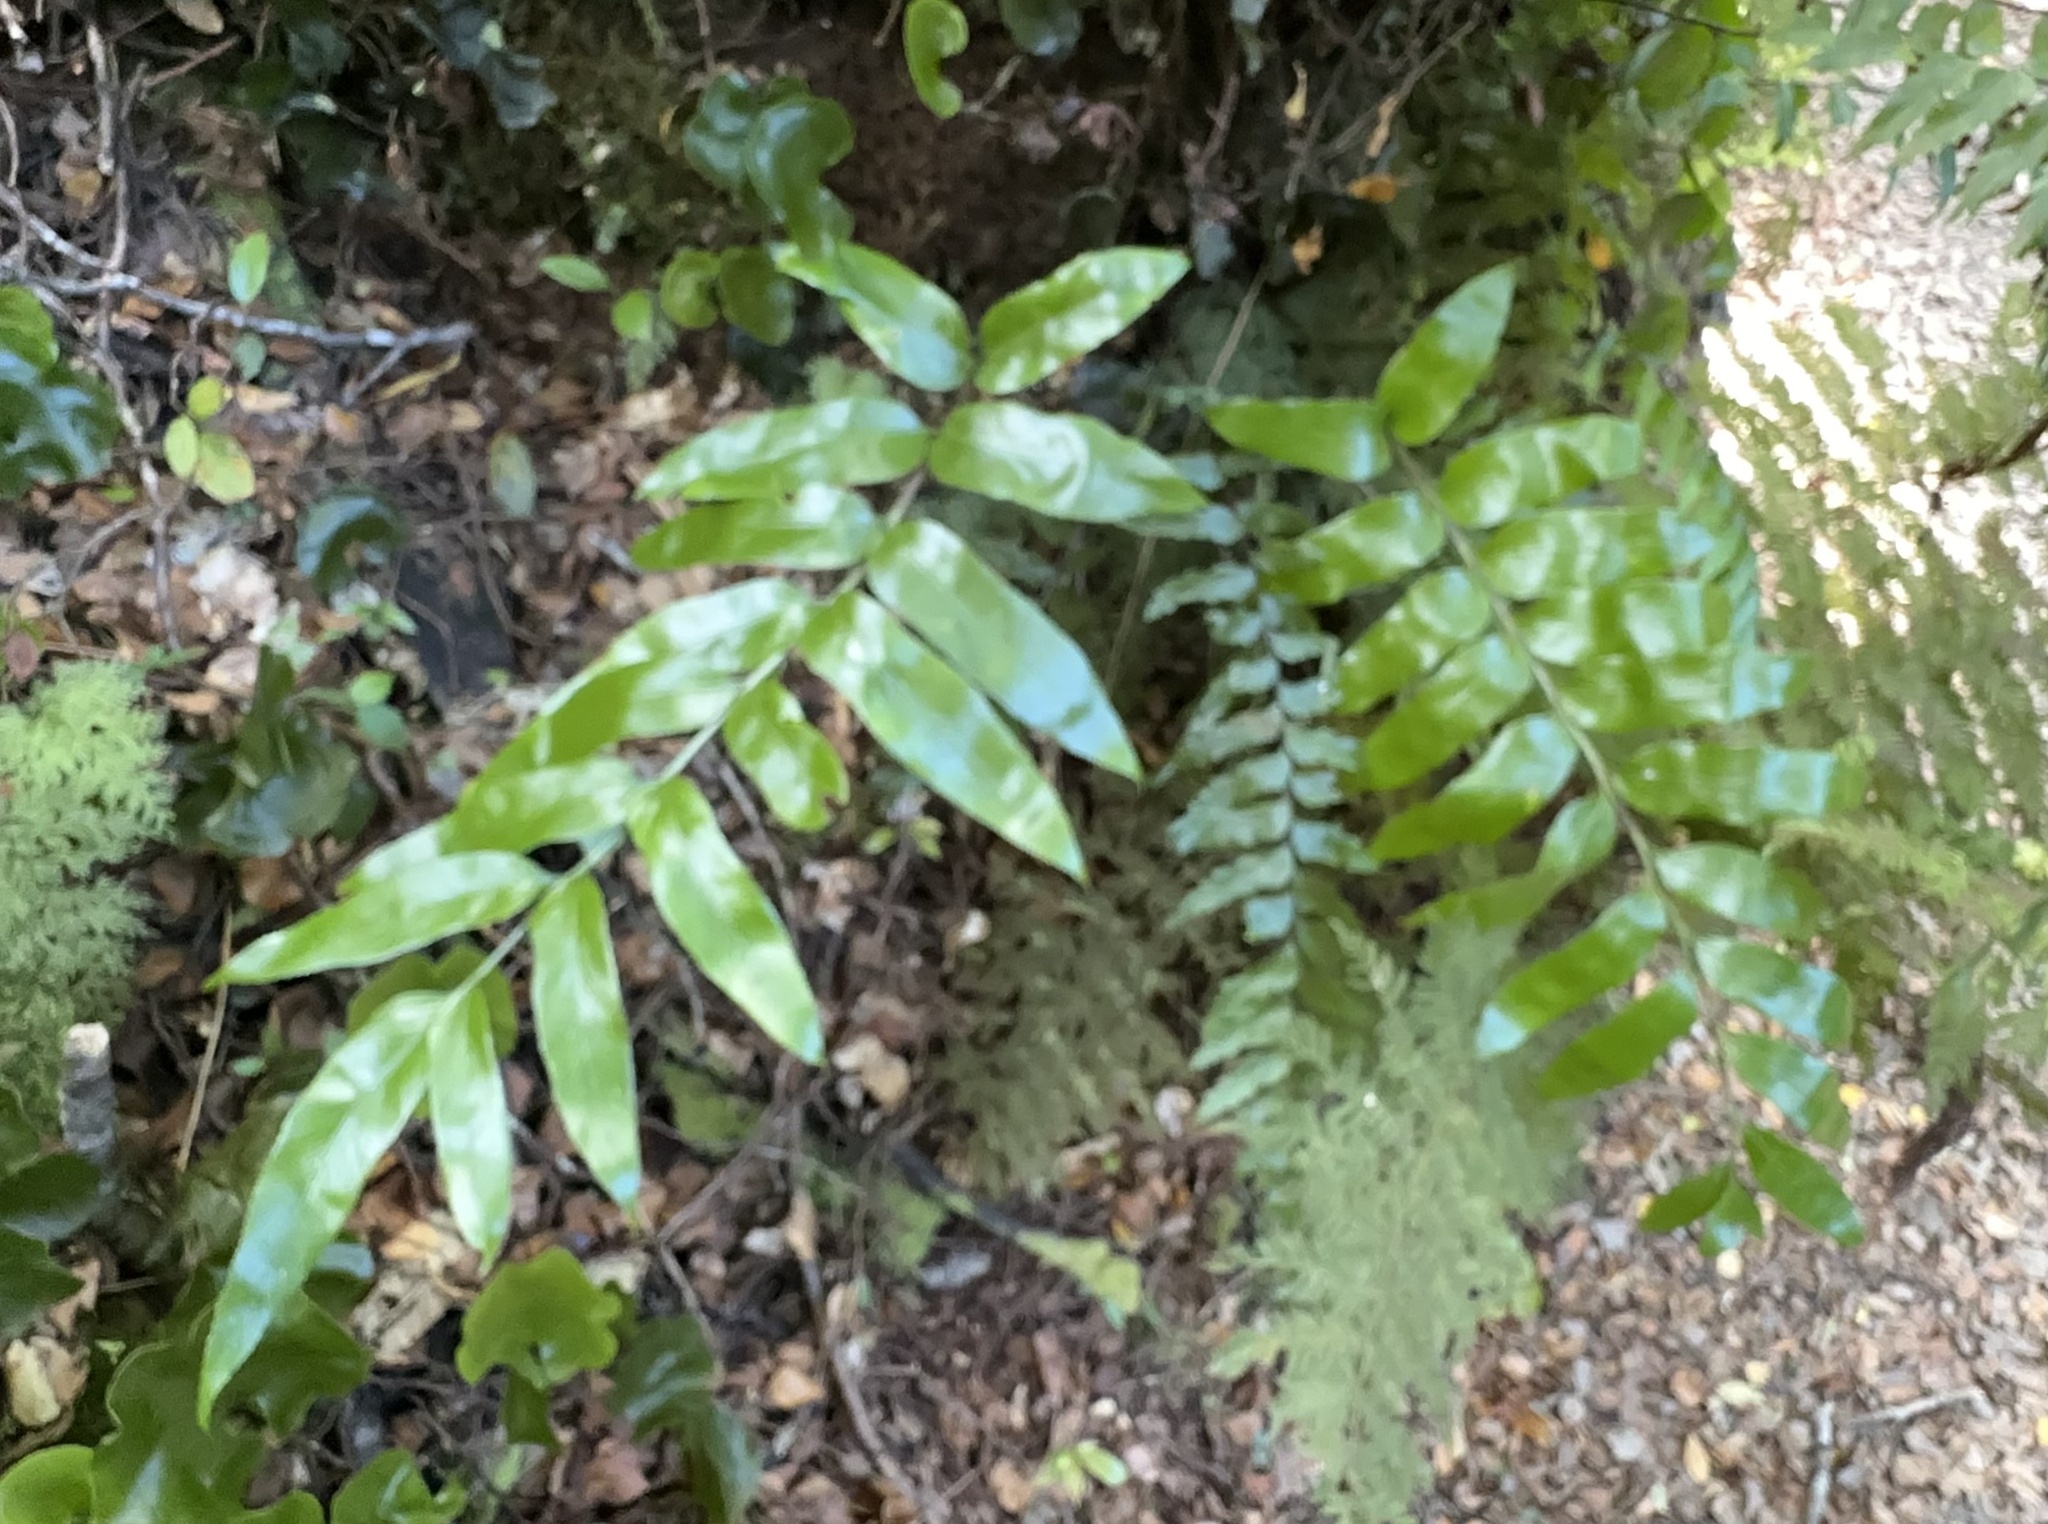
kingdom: Plantae
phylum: Tracheophyta
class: Polypodiopsida
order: Polypodiales
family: Aspleniaceae
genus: Asplenium
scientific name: Asplenium oblongifolium
